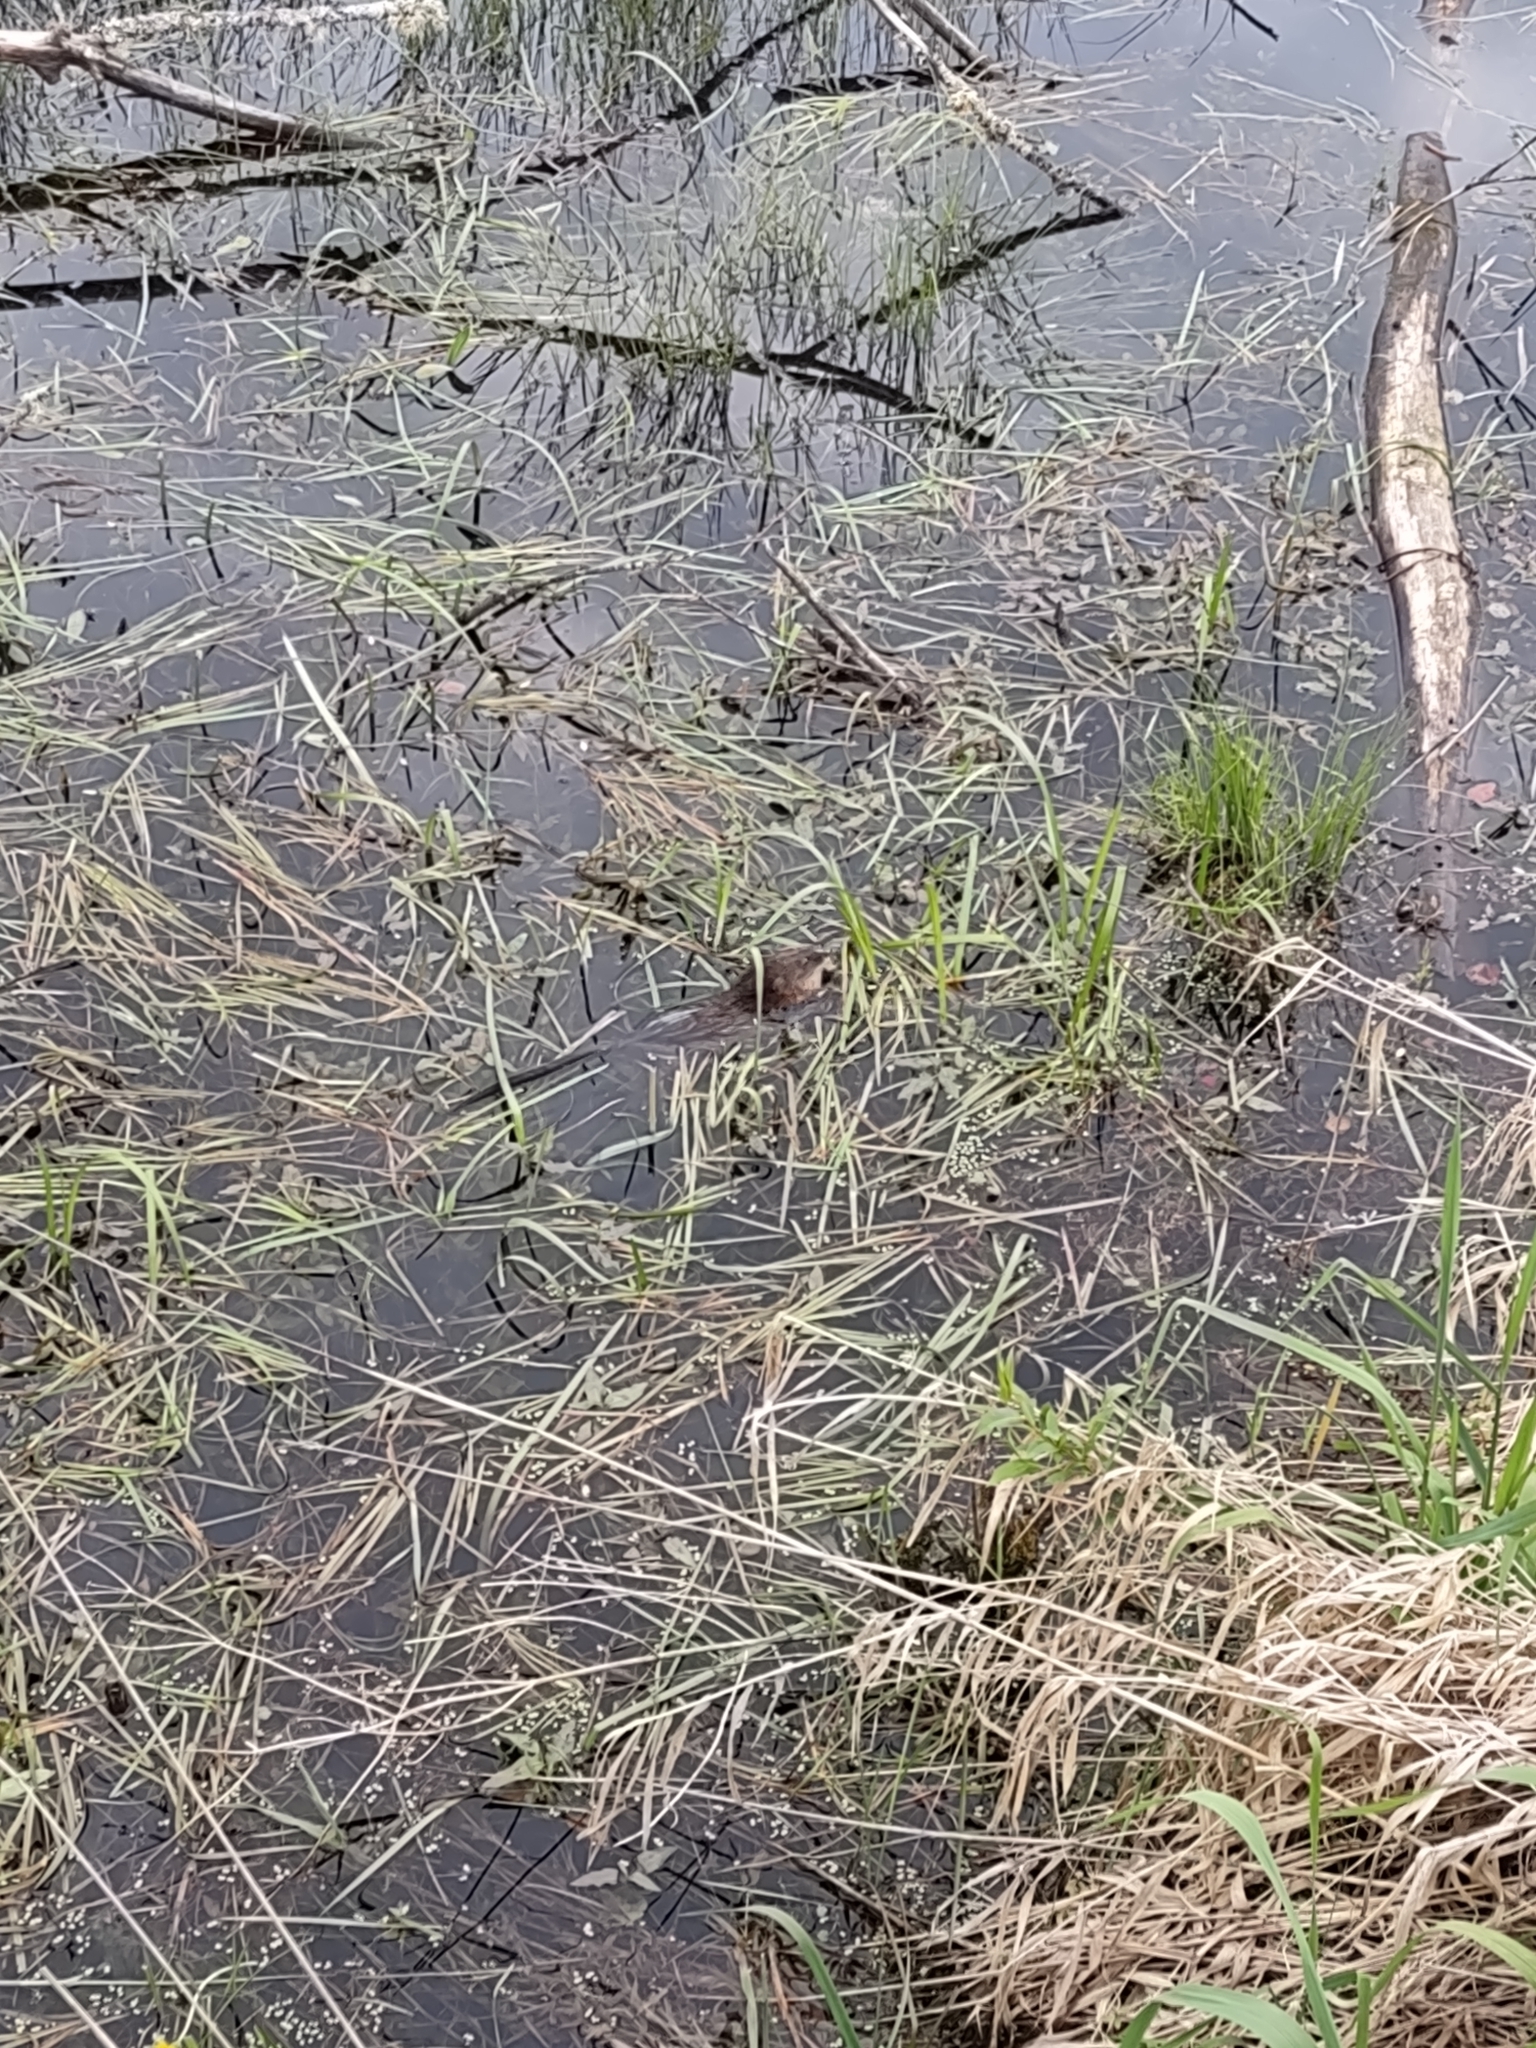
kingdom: Animalia
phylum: Chordata
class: Mammalia
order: Rodentia
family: Cricetidae
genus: Ondatra
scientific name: Ondatra zibethicus
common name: Muskrat
